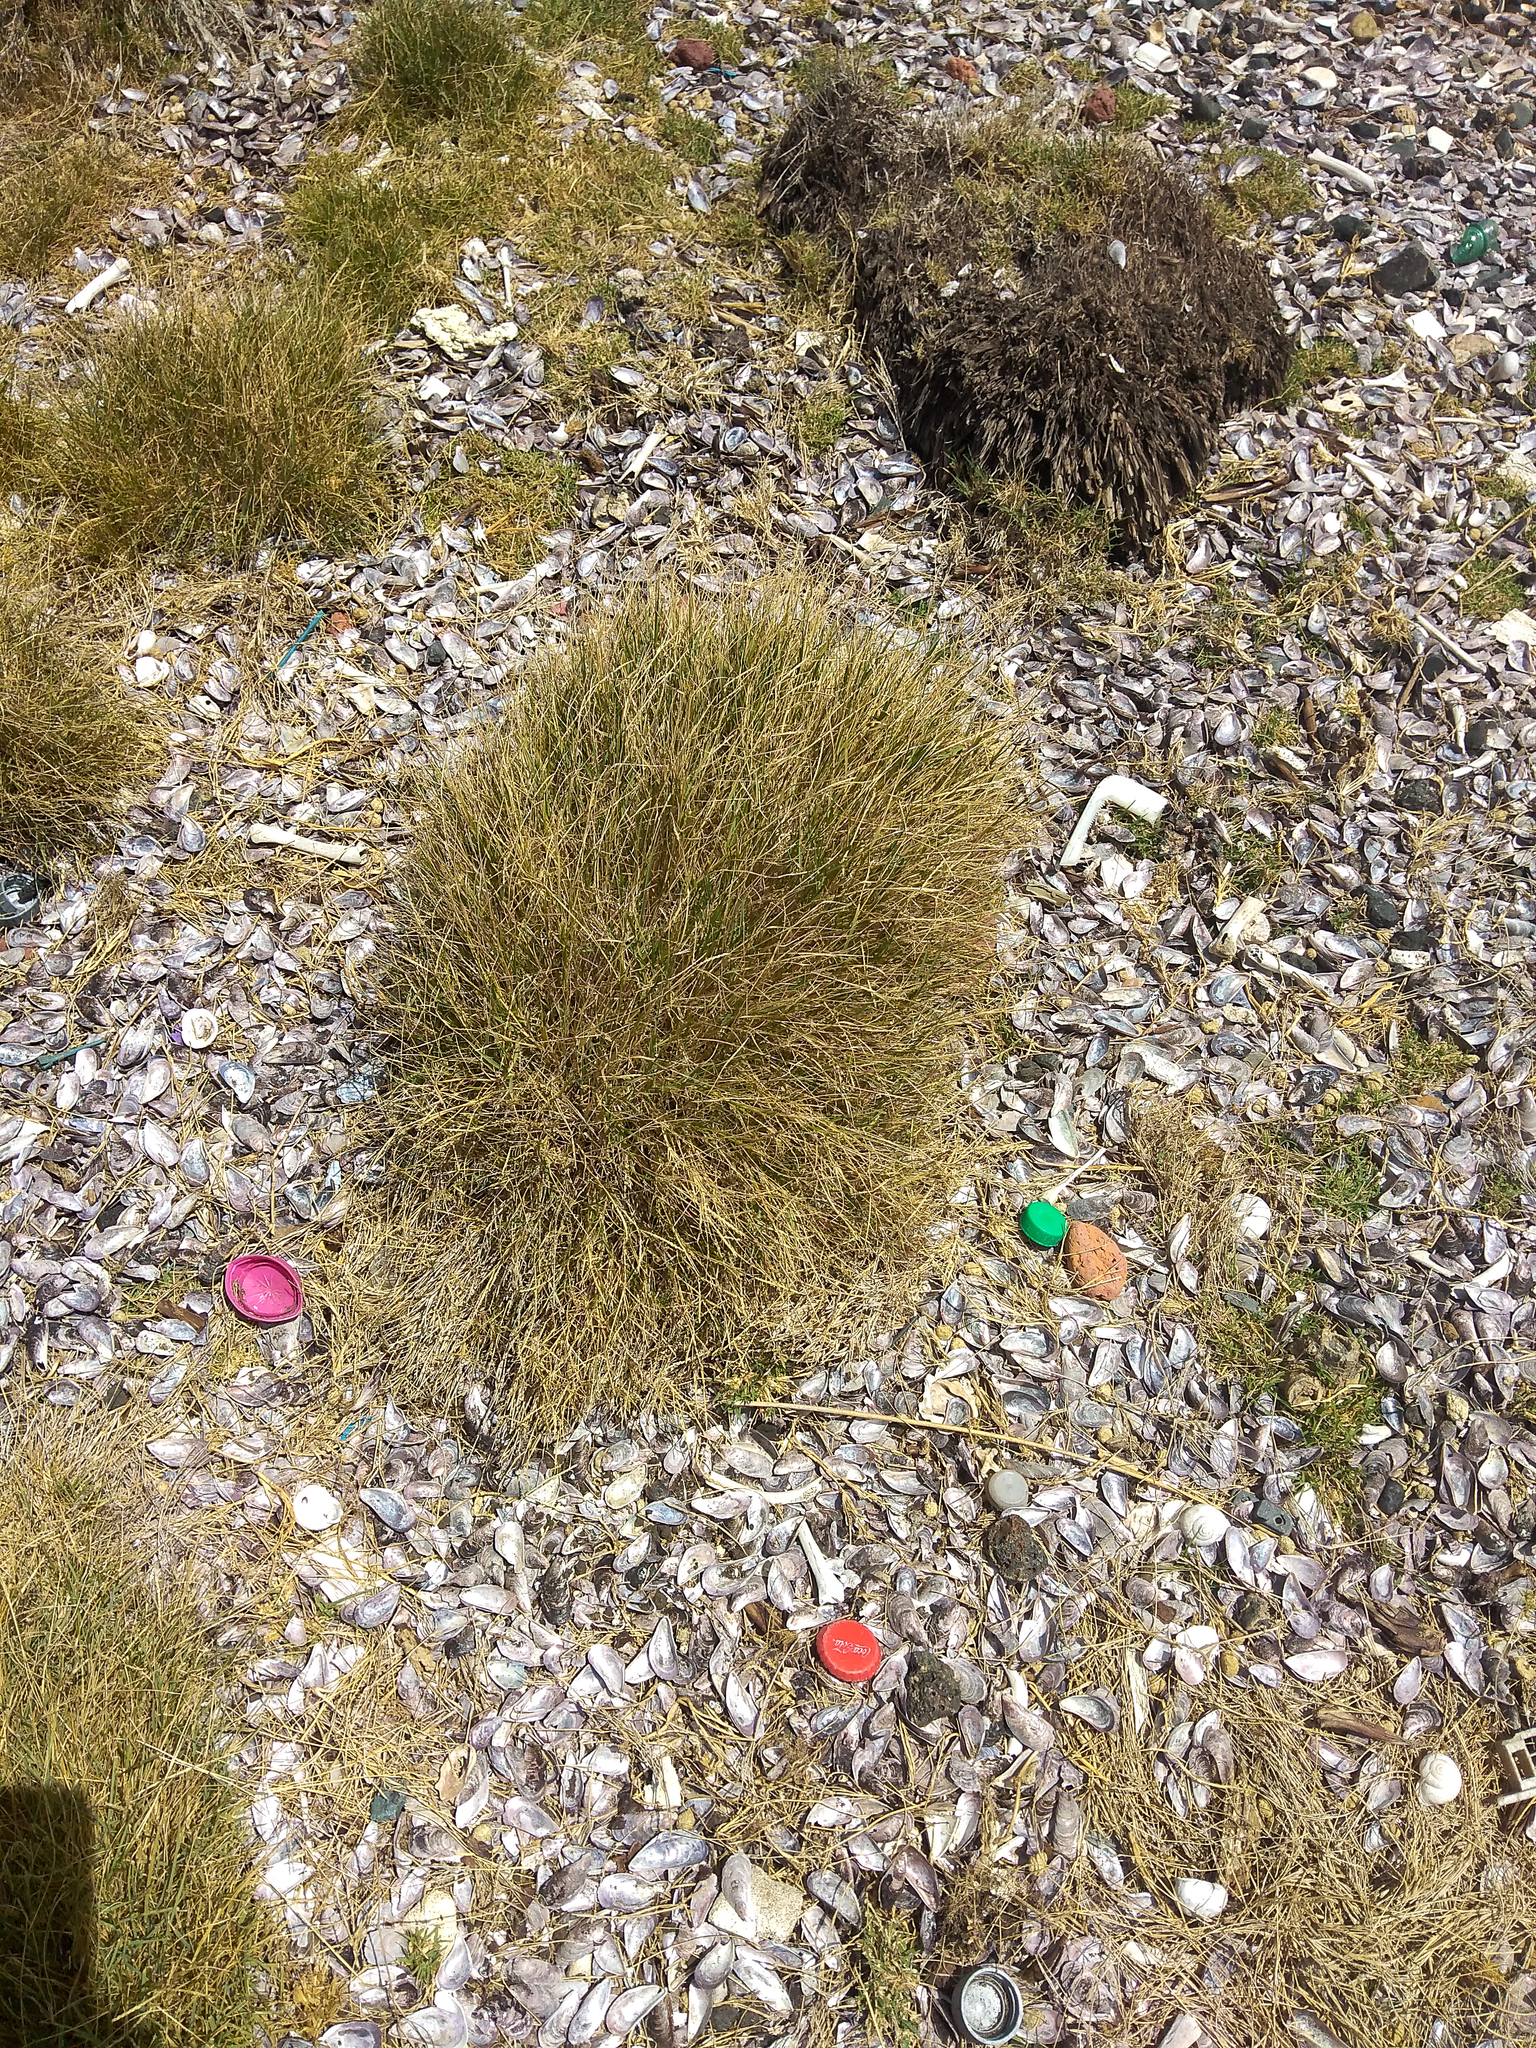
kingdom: Plantae
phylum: Tracheophyta
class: Liliopsida
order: Poales
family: Poaceae
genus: Cynodon
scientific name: Cynodon dactylon
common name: Bermuda grass
